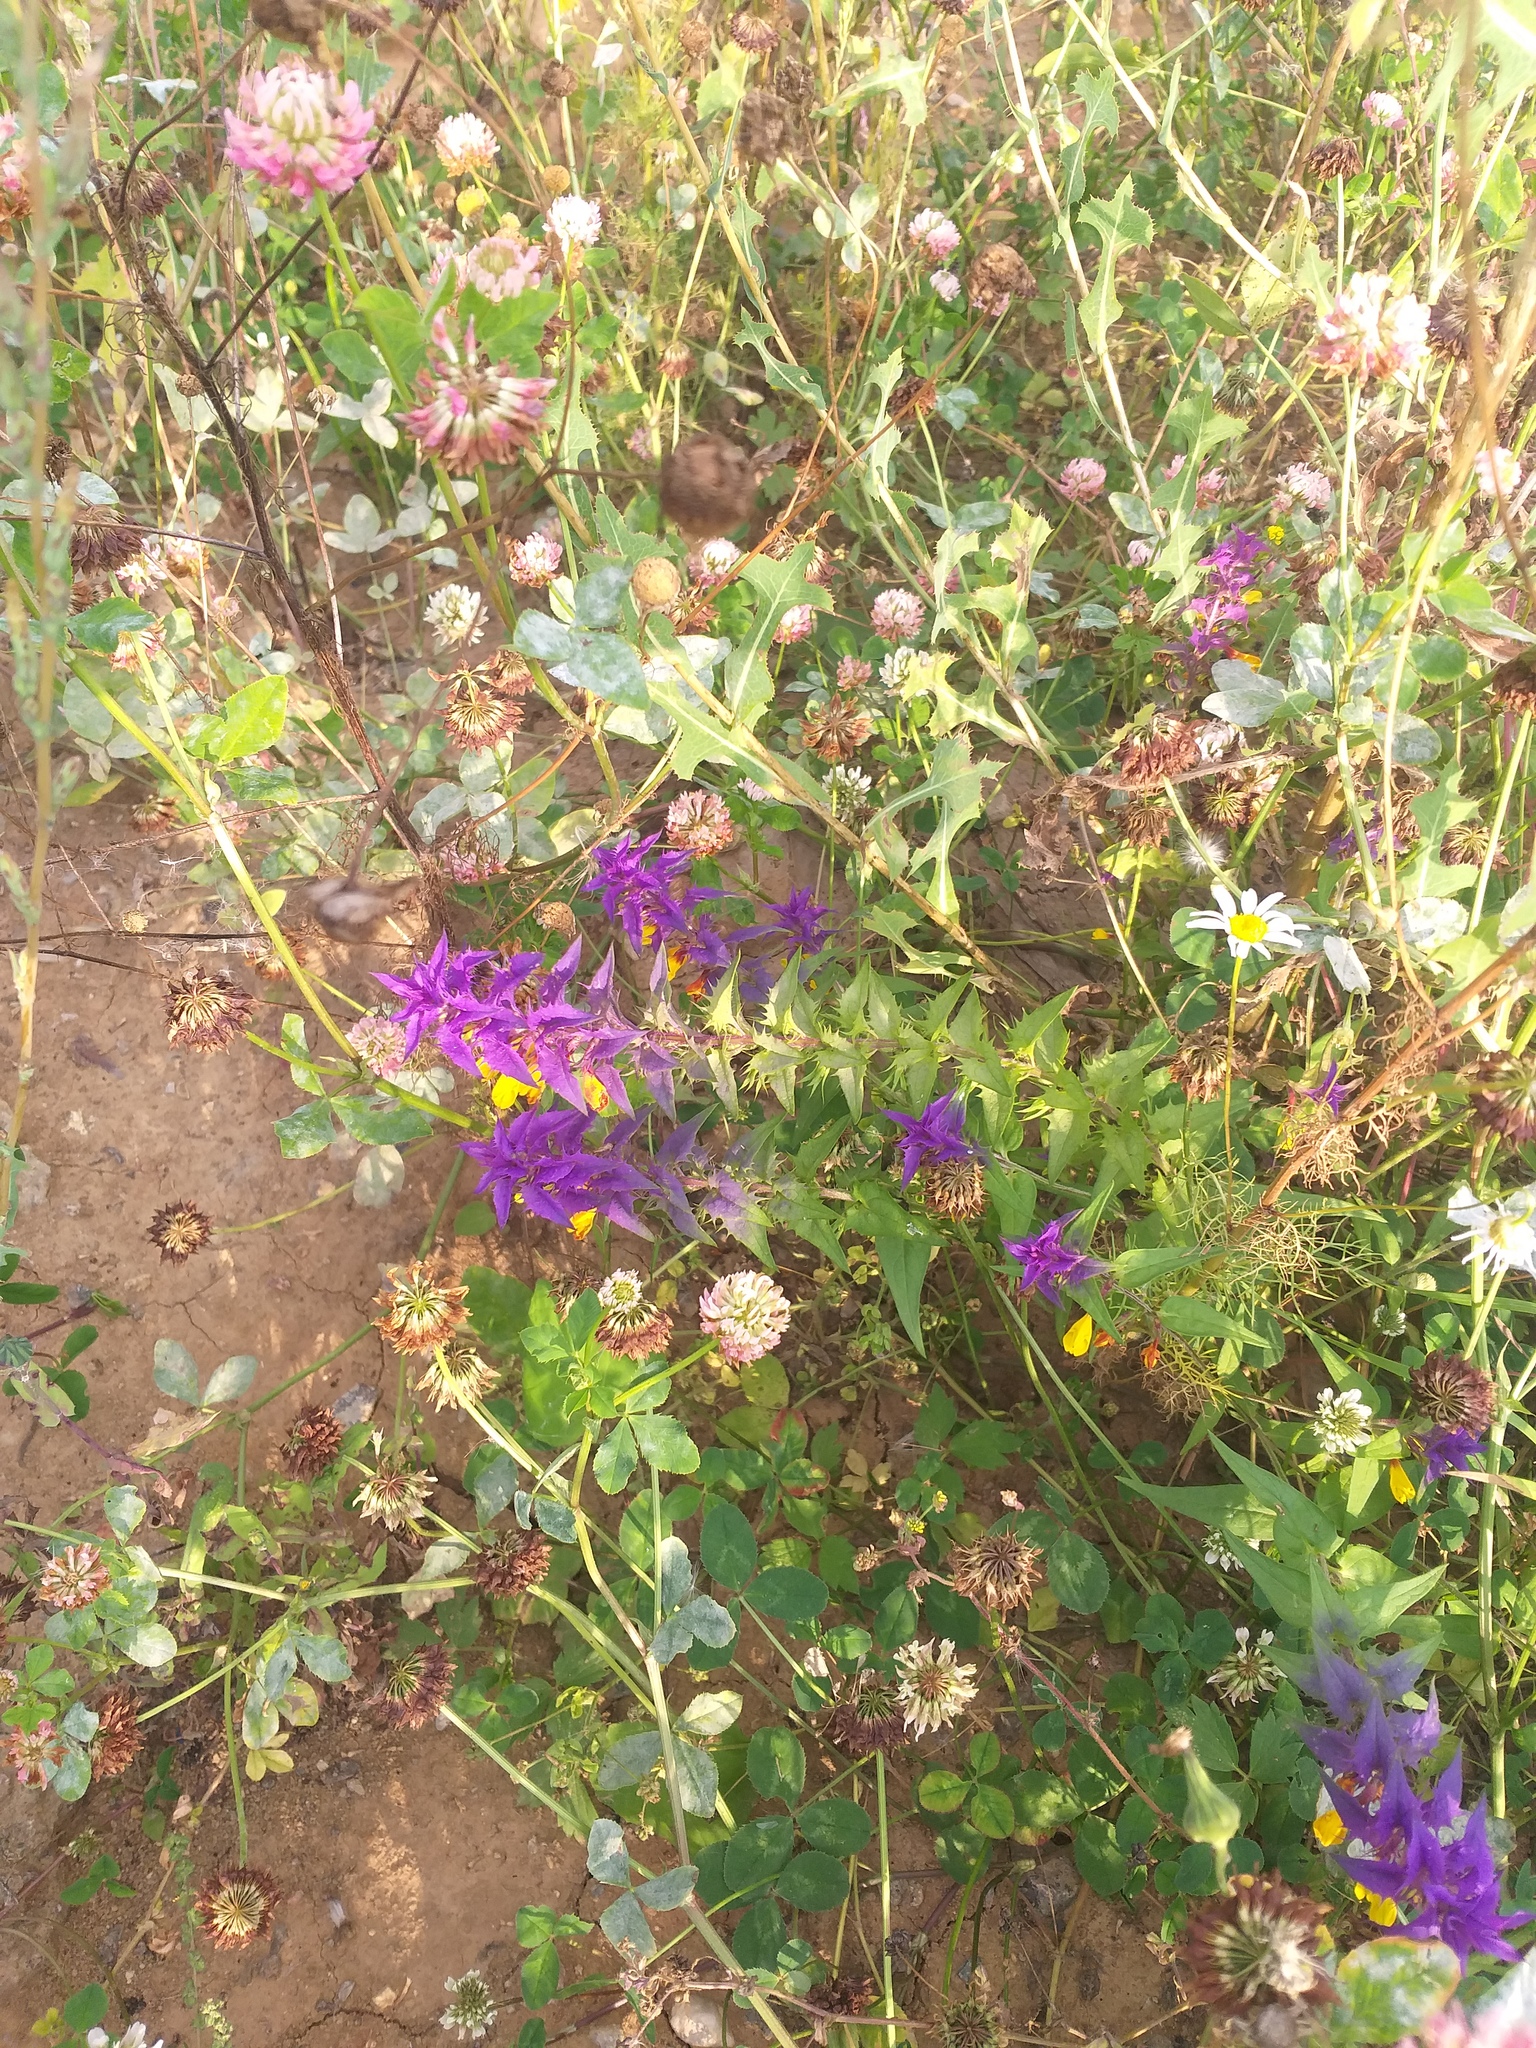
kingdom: Plantae
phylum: Tracheophyta
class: Magnoliopsida
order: Lamiales
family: Orobanchaceae
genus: Melampyrum
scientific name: Melampyrum nemorosum
